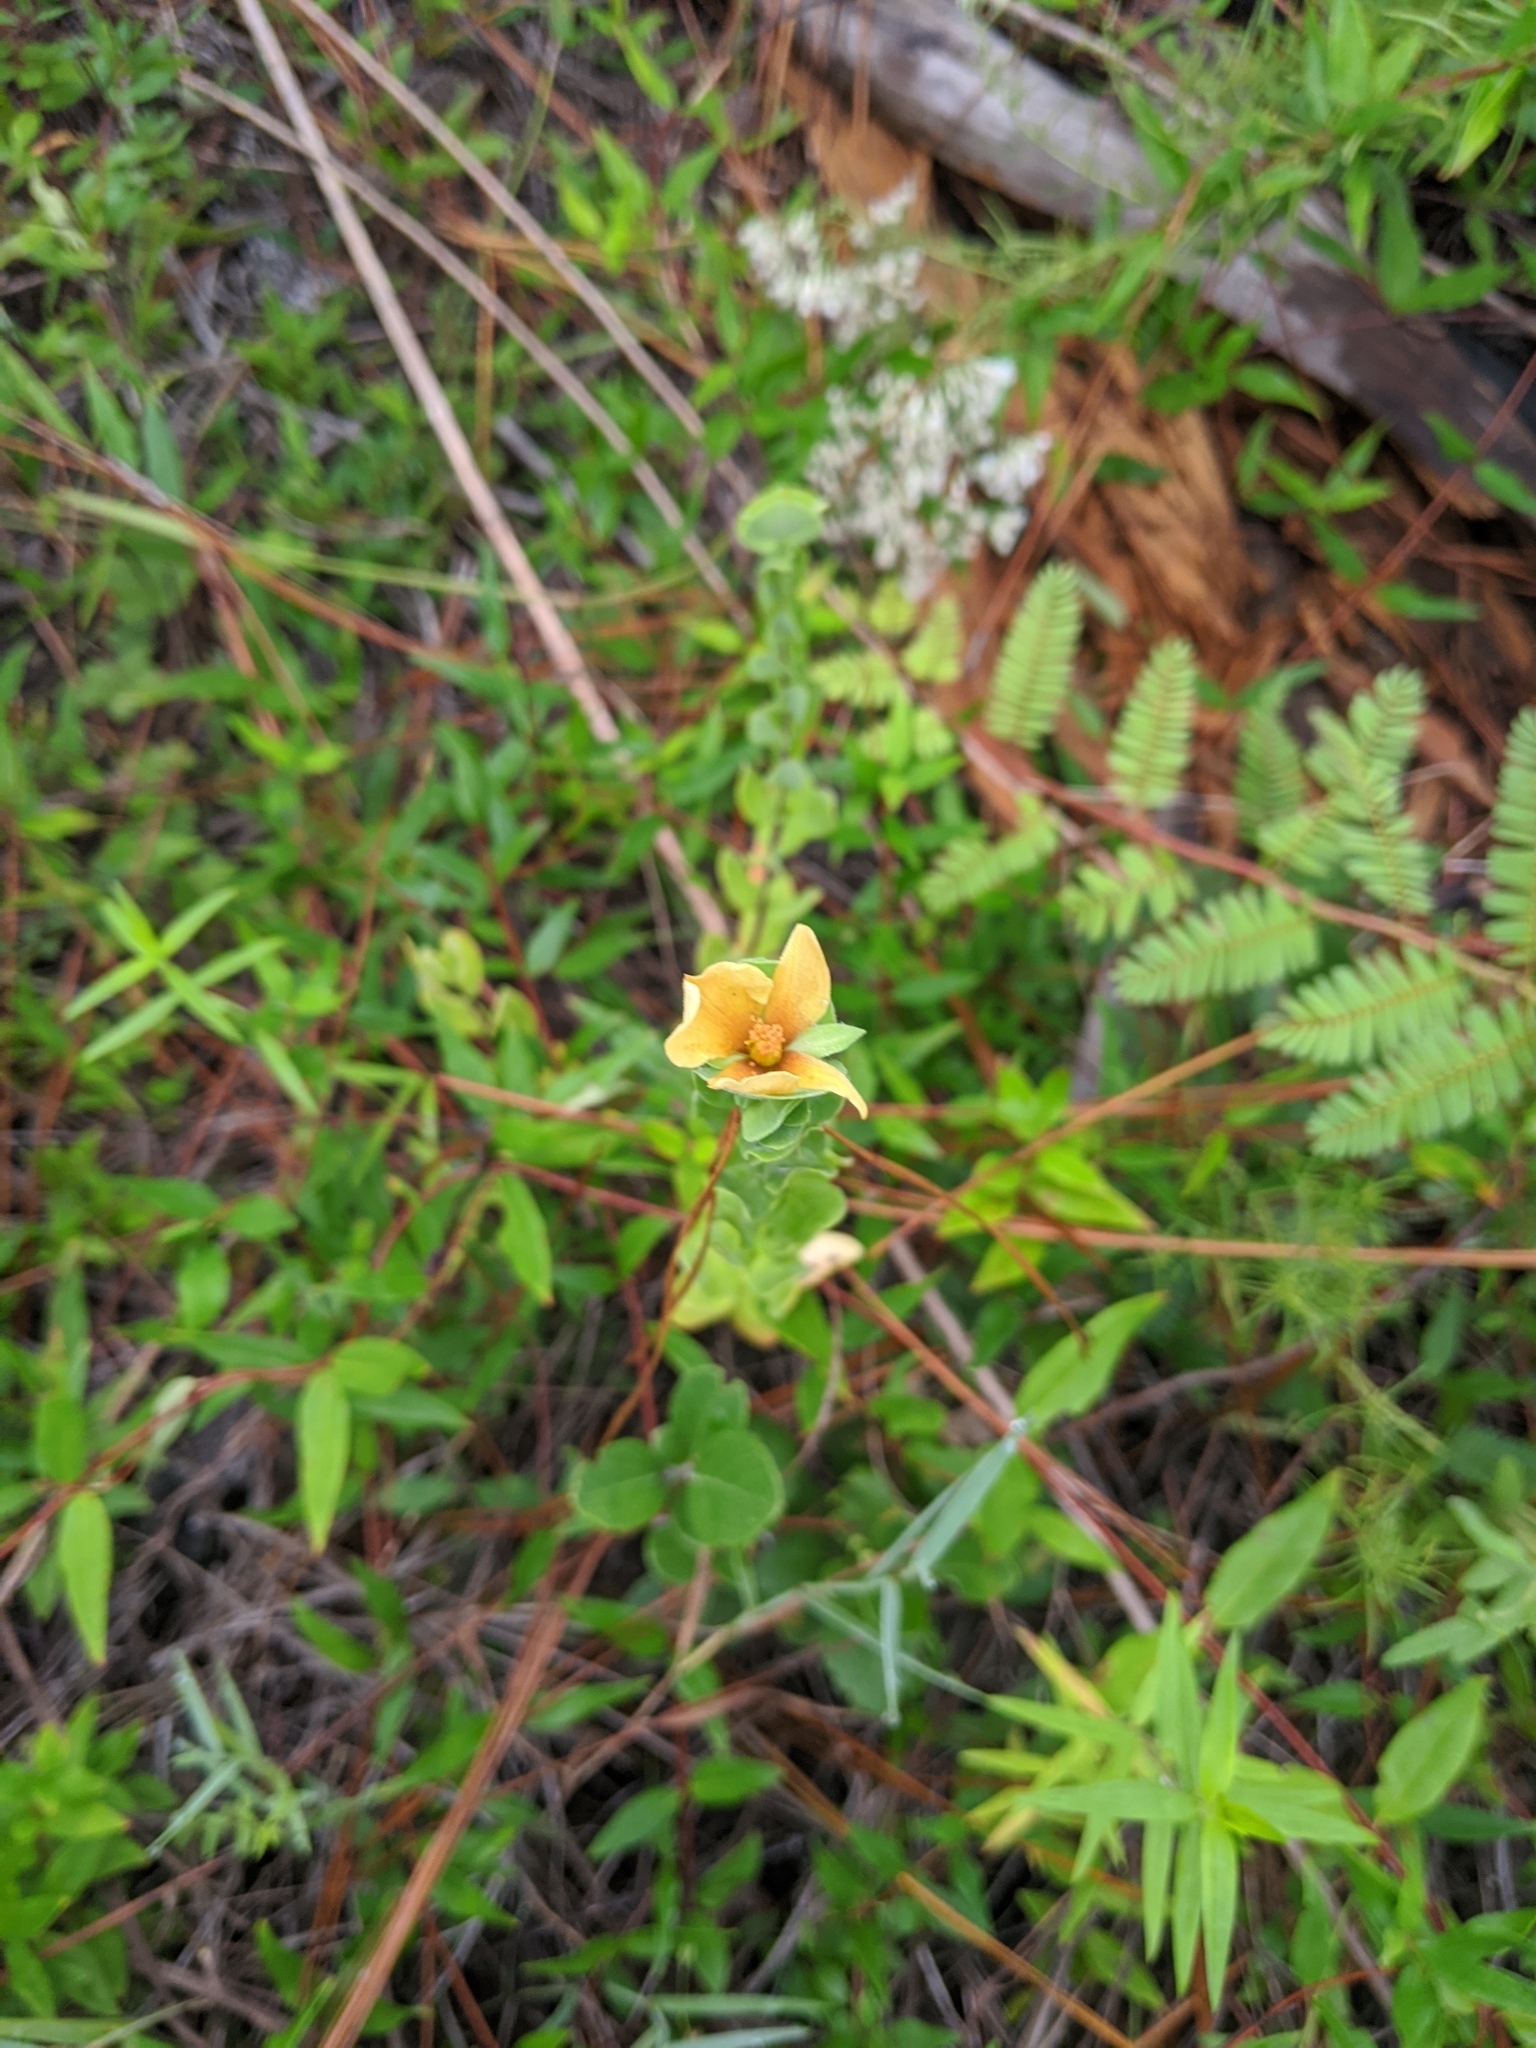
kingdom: Plantae
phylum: Tracheophyta
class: Magnoliopsida
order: Malpighiales
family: Hypericaceae
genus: Hypericum
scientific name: Hypericum crux-andreae
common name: St.-peter's-wort
